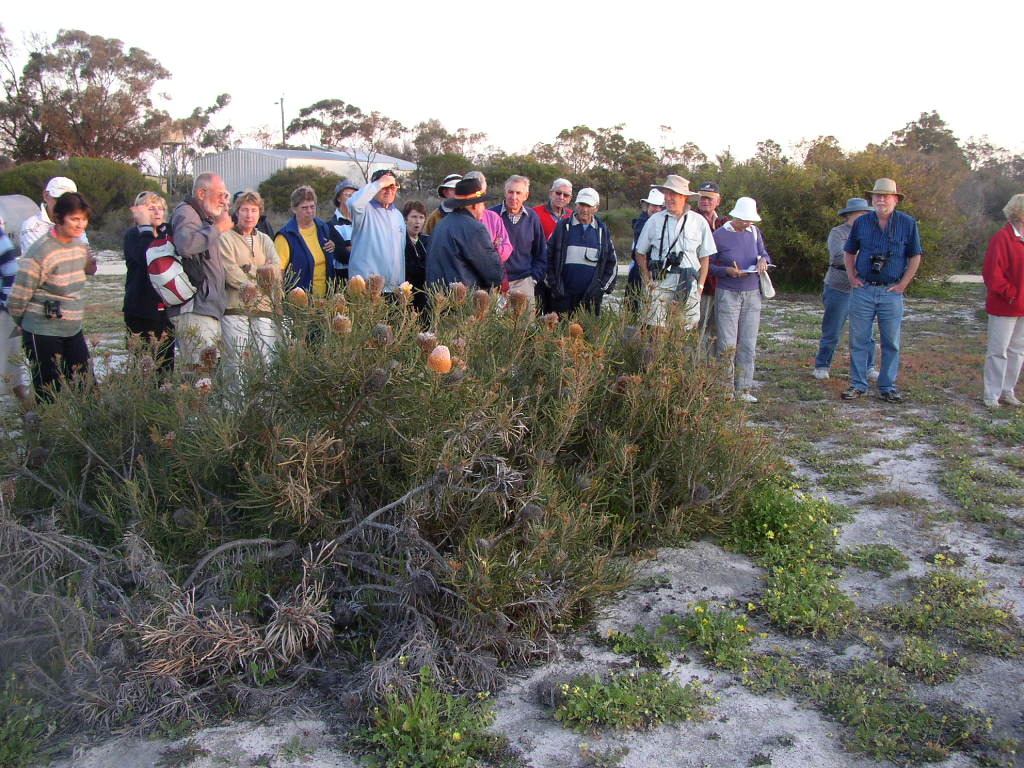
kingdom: Plantae
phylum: Tracheophyta
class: Magnoliopsida
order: Proteales
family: Proteaceae
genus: Banksia
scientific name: Banksia hookeriana
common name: Hooker's banksia
